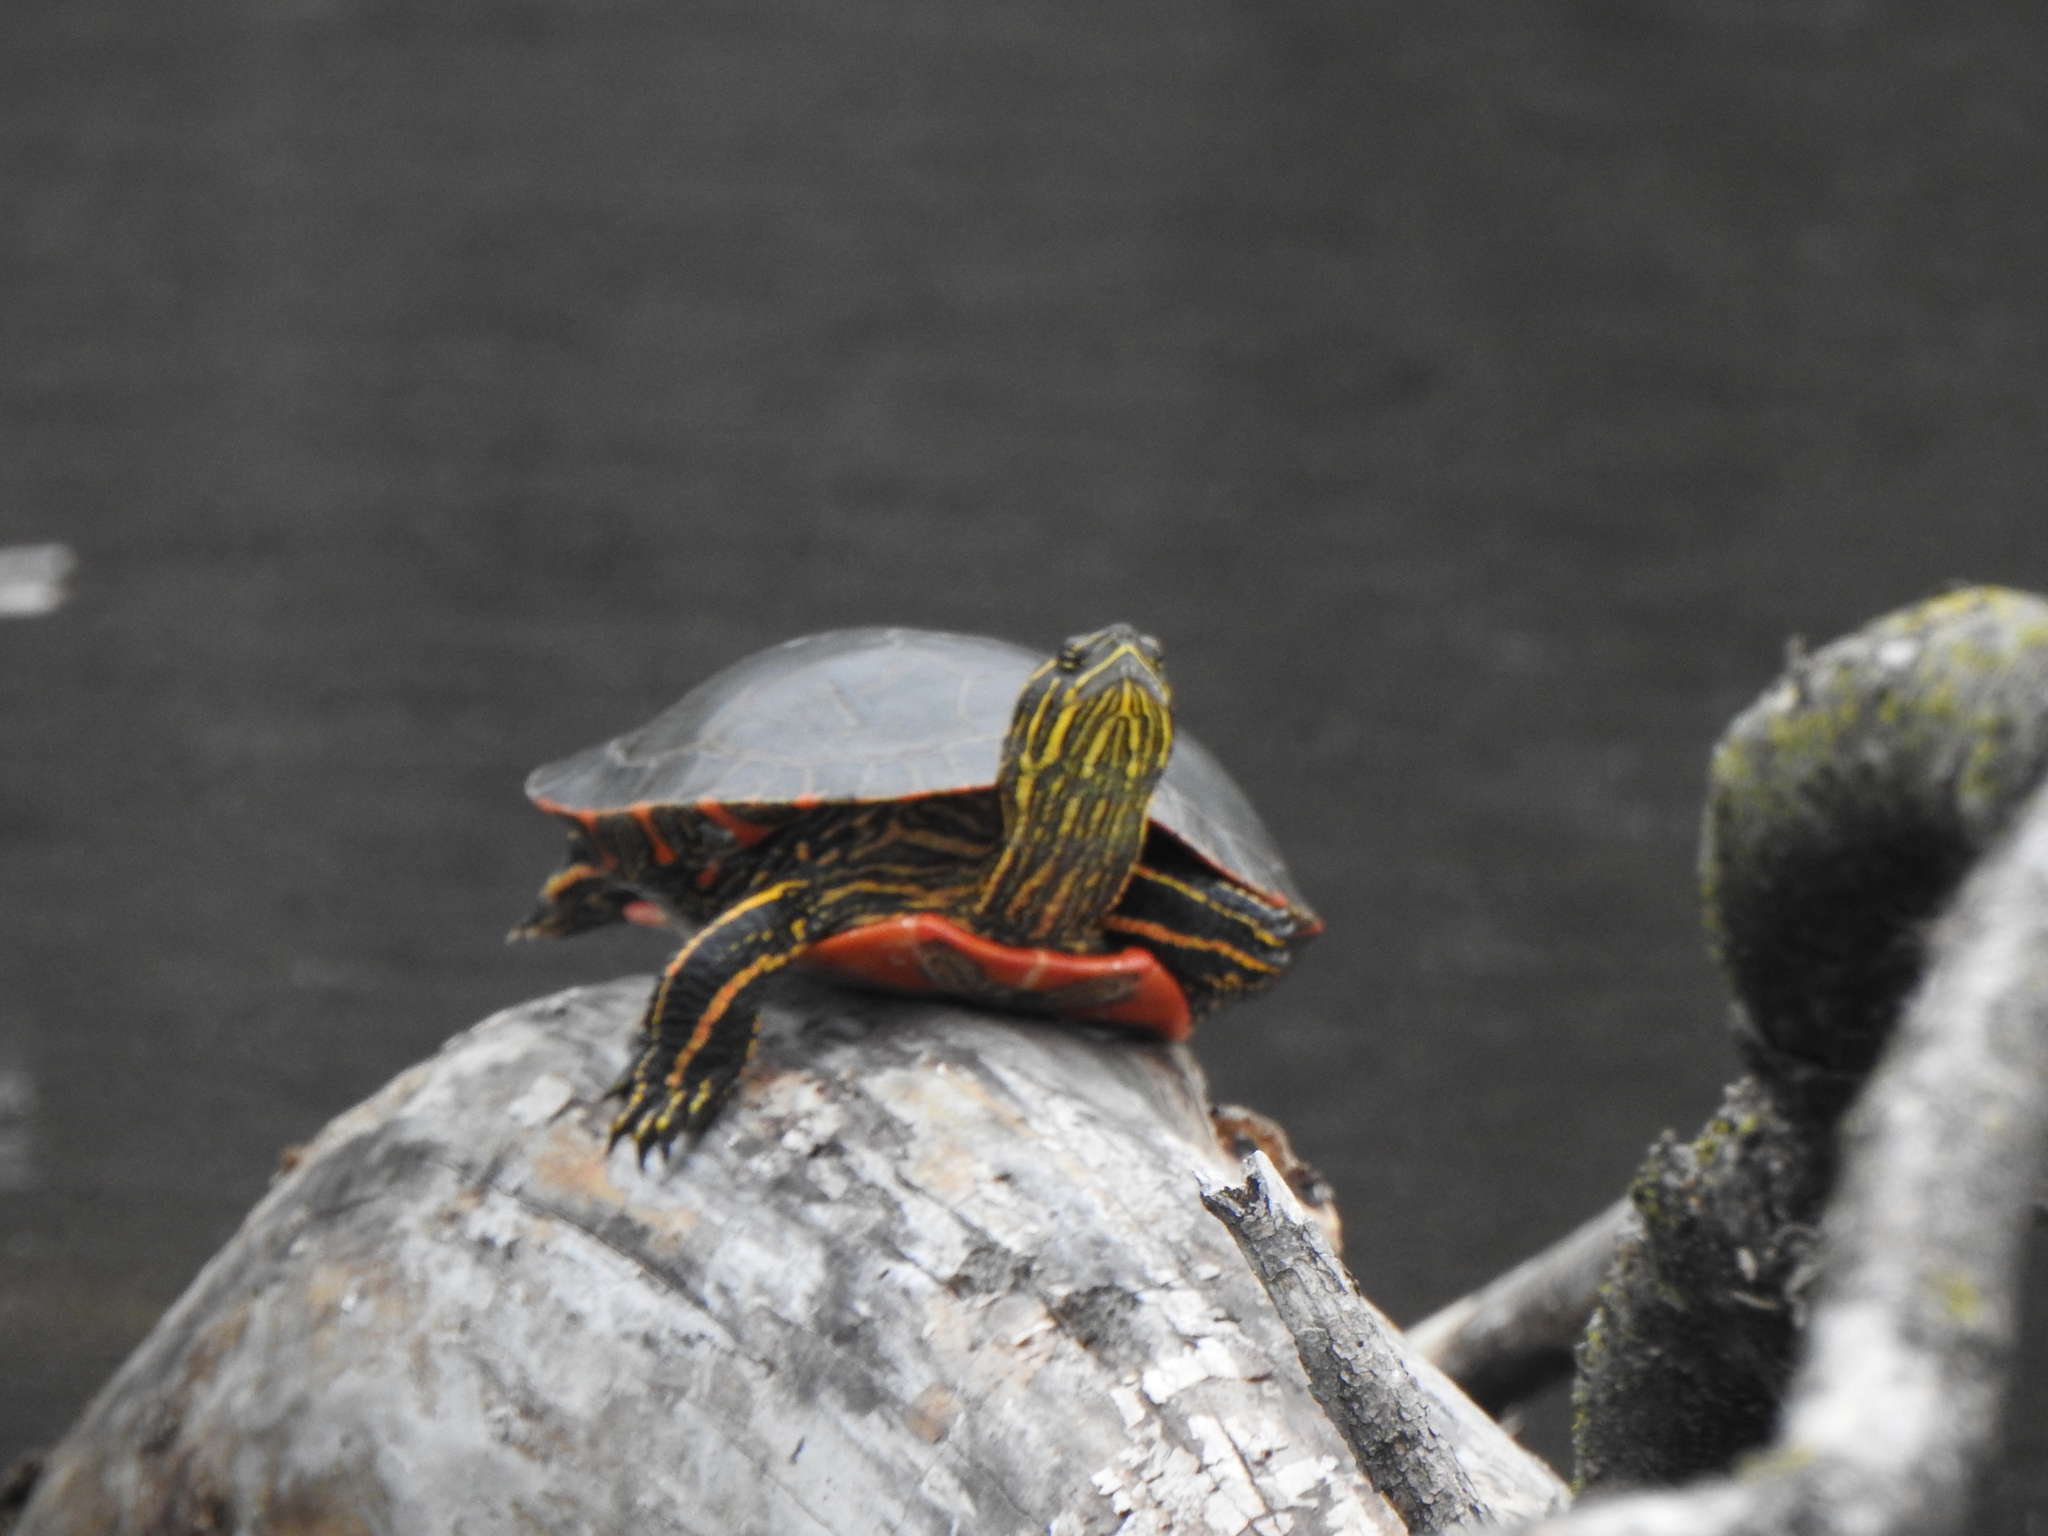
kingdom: Animalia
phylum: Chordata
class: Testudines
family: Emydidae
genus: Chrysemys
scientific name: Chrysemys picta
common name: Painted turtle
